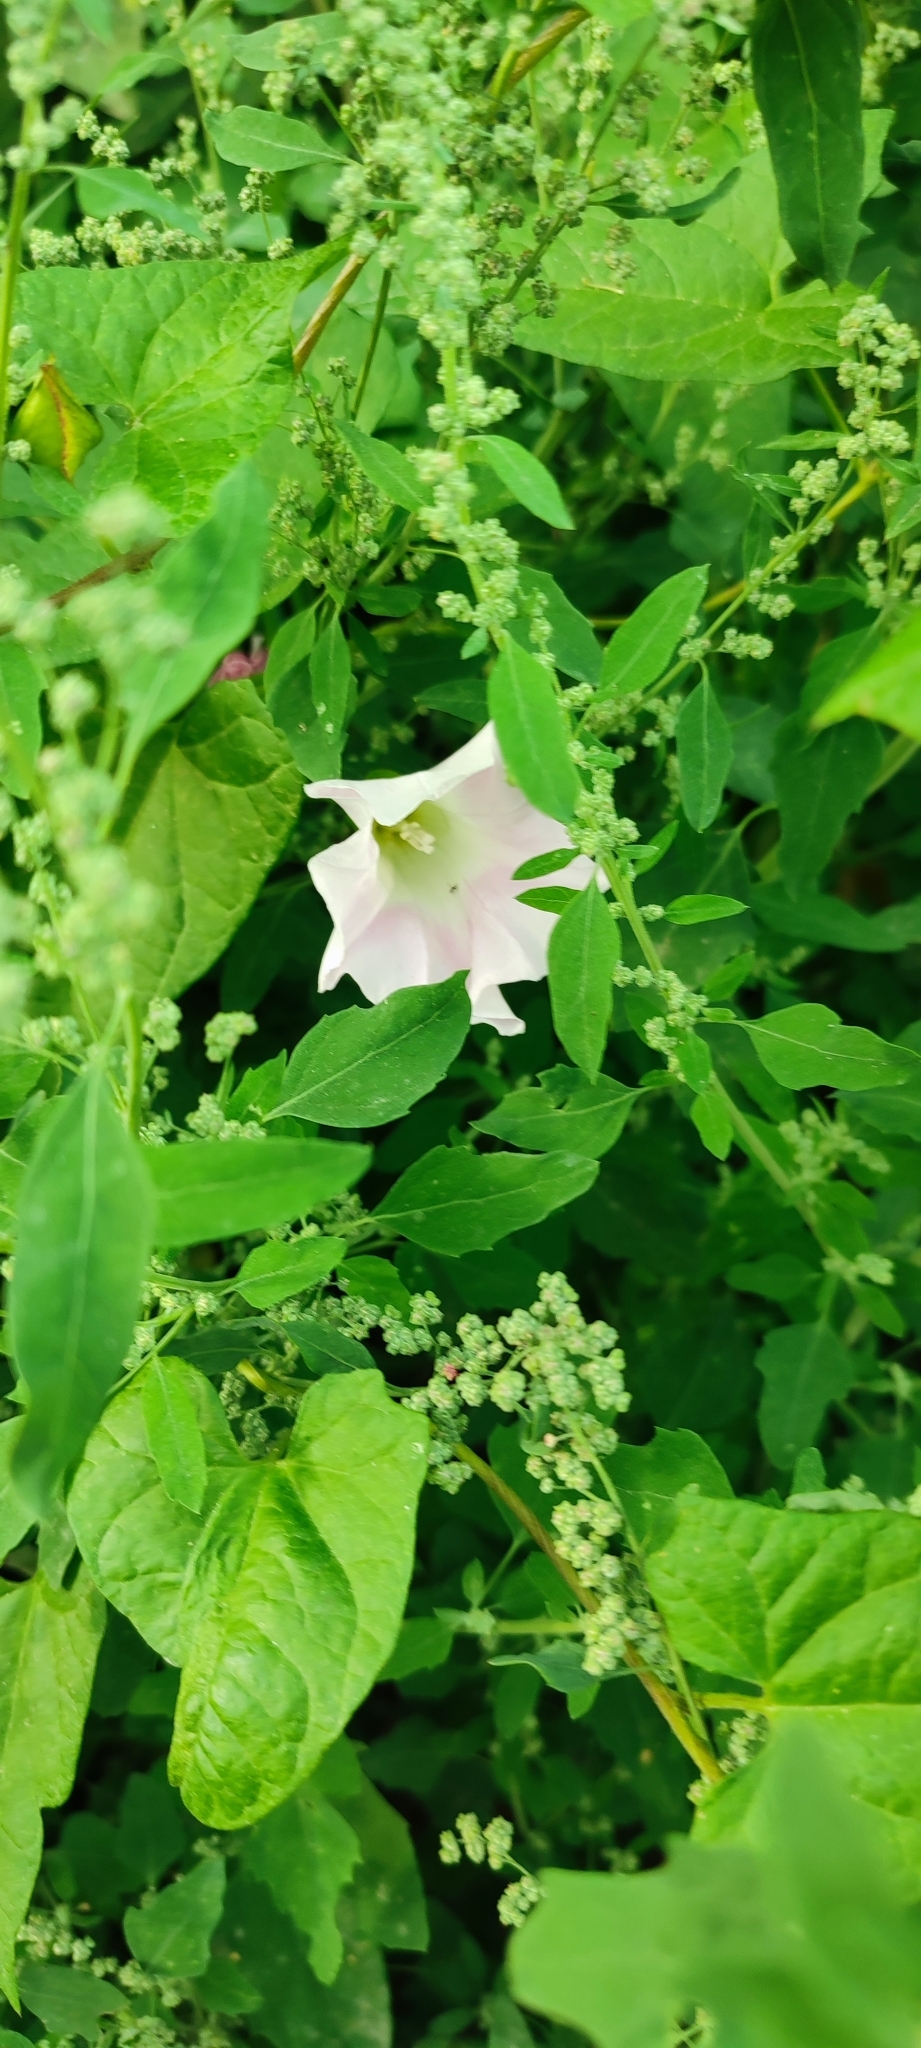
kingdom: Plantae
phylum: Tracheophyta
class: Magnoliopsida
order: Solanales
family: Convolvulaceae
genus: Calystegia
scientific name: Calystegia sepium
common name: Hedge bindweed
